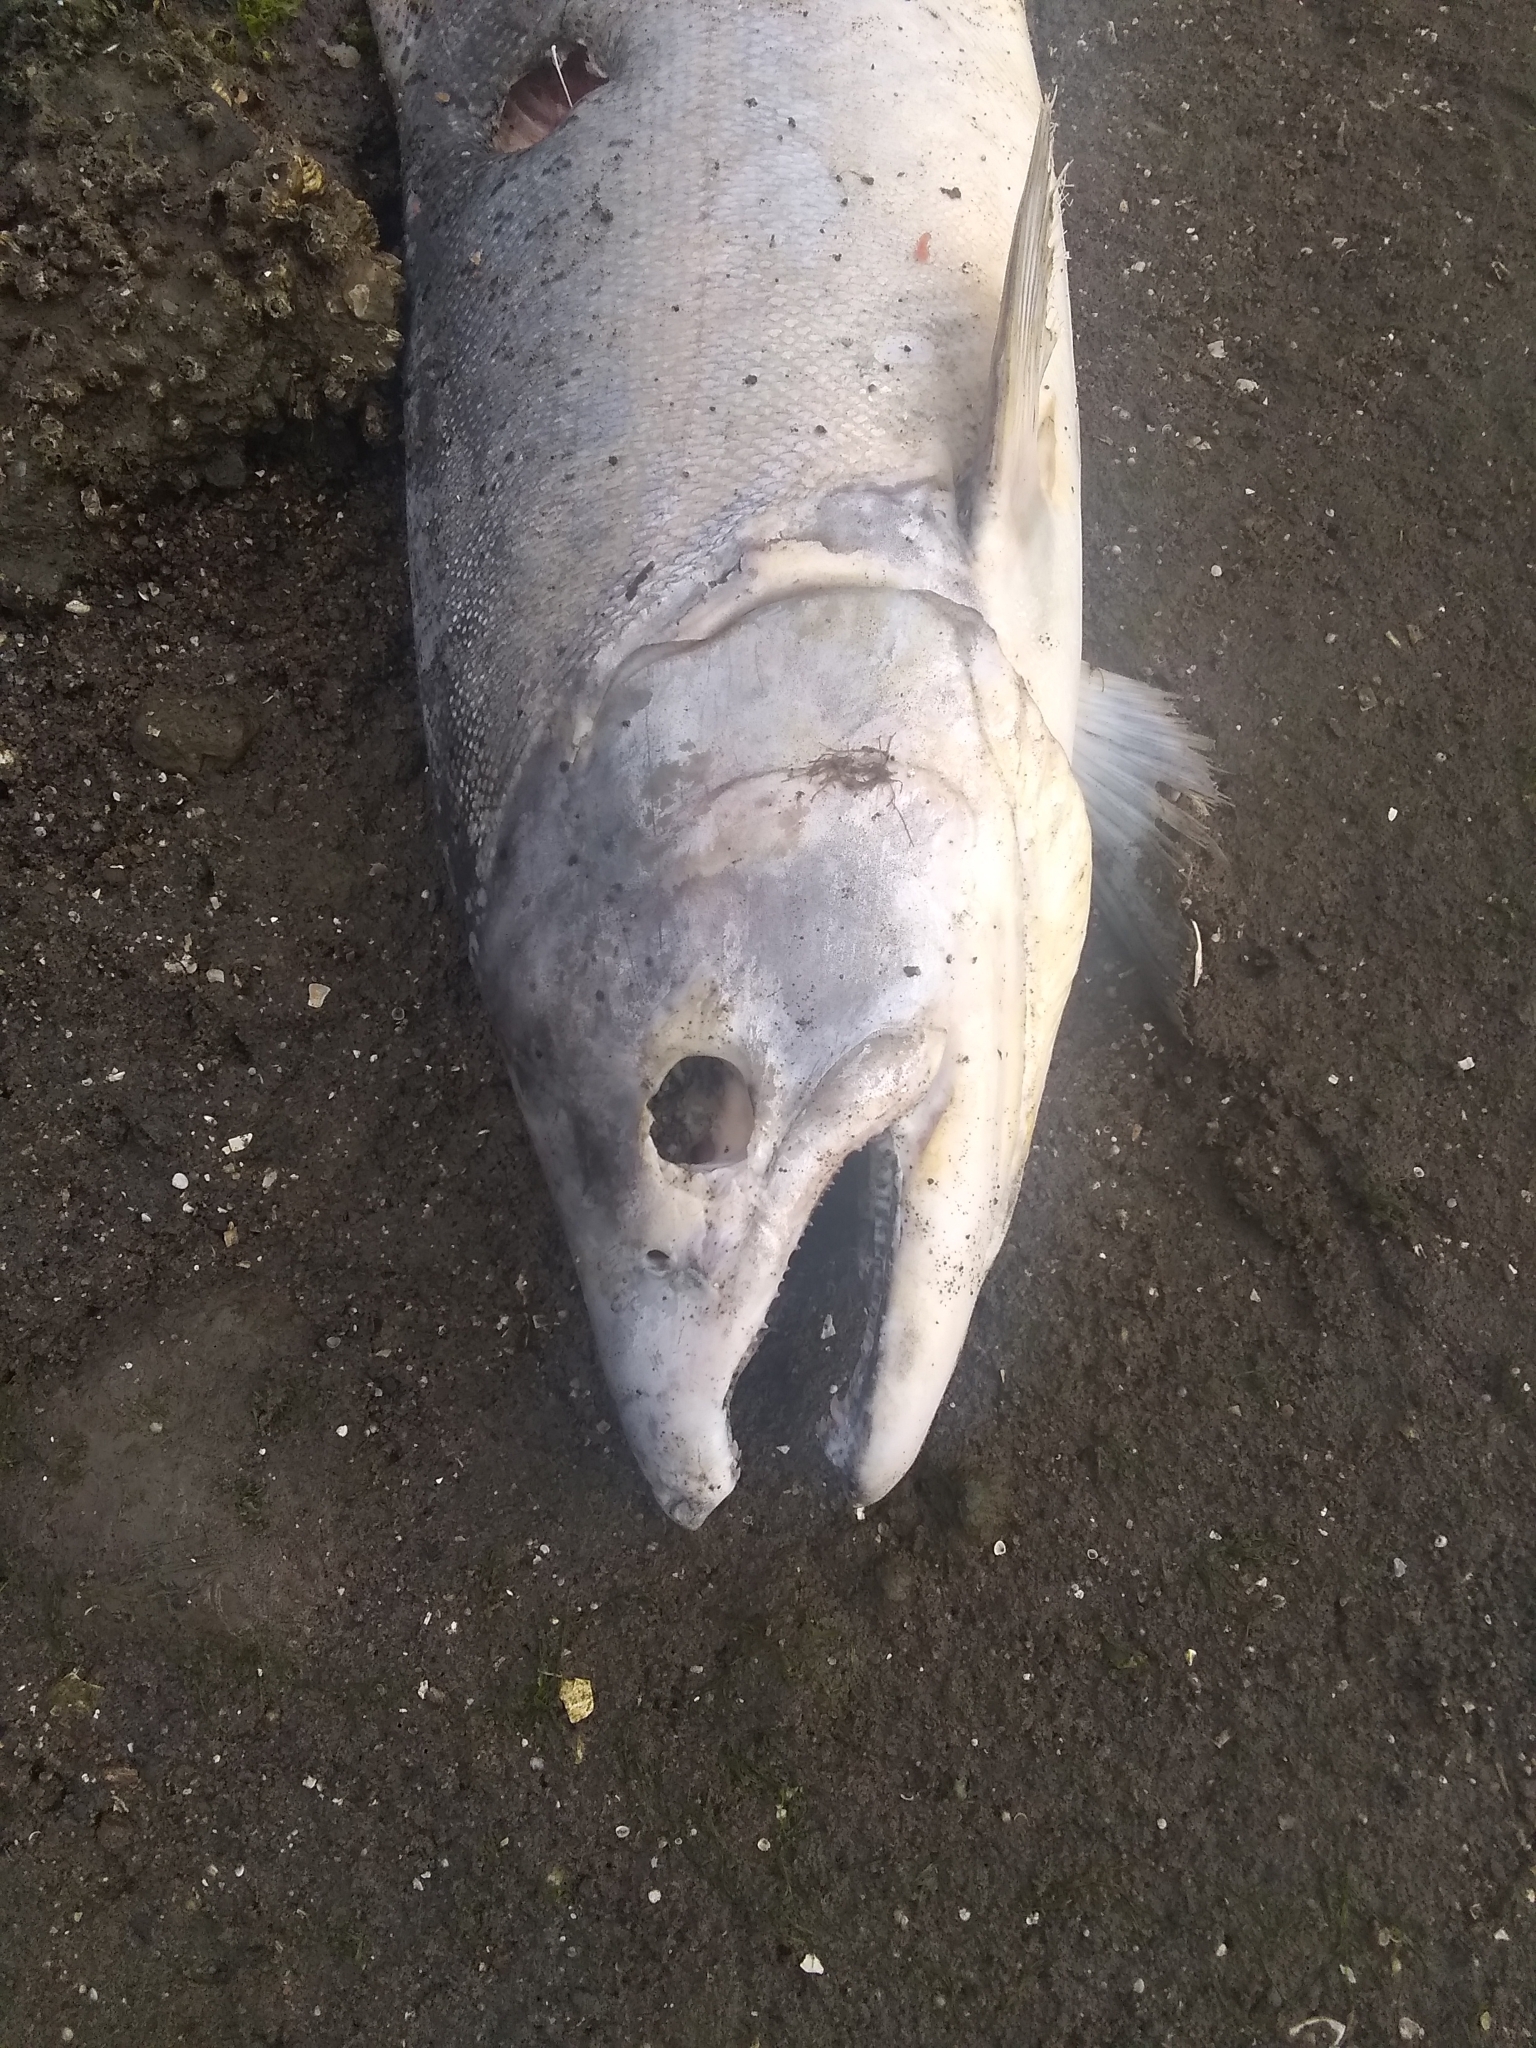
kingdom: Animalia
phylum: Chordata
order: Salmoniformes
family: Salmonidae
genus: Oncorhynchus
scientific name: Oncorhynchus tshawytscha
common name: Chinook salmon
